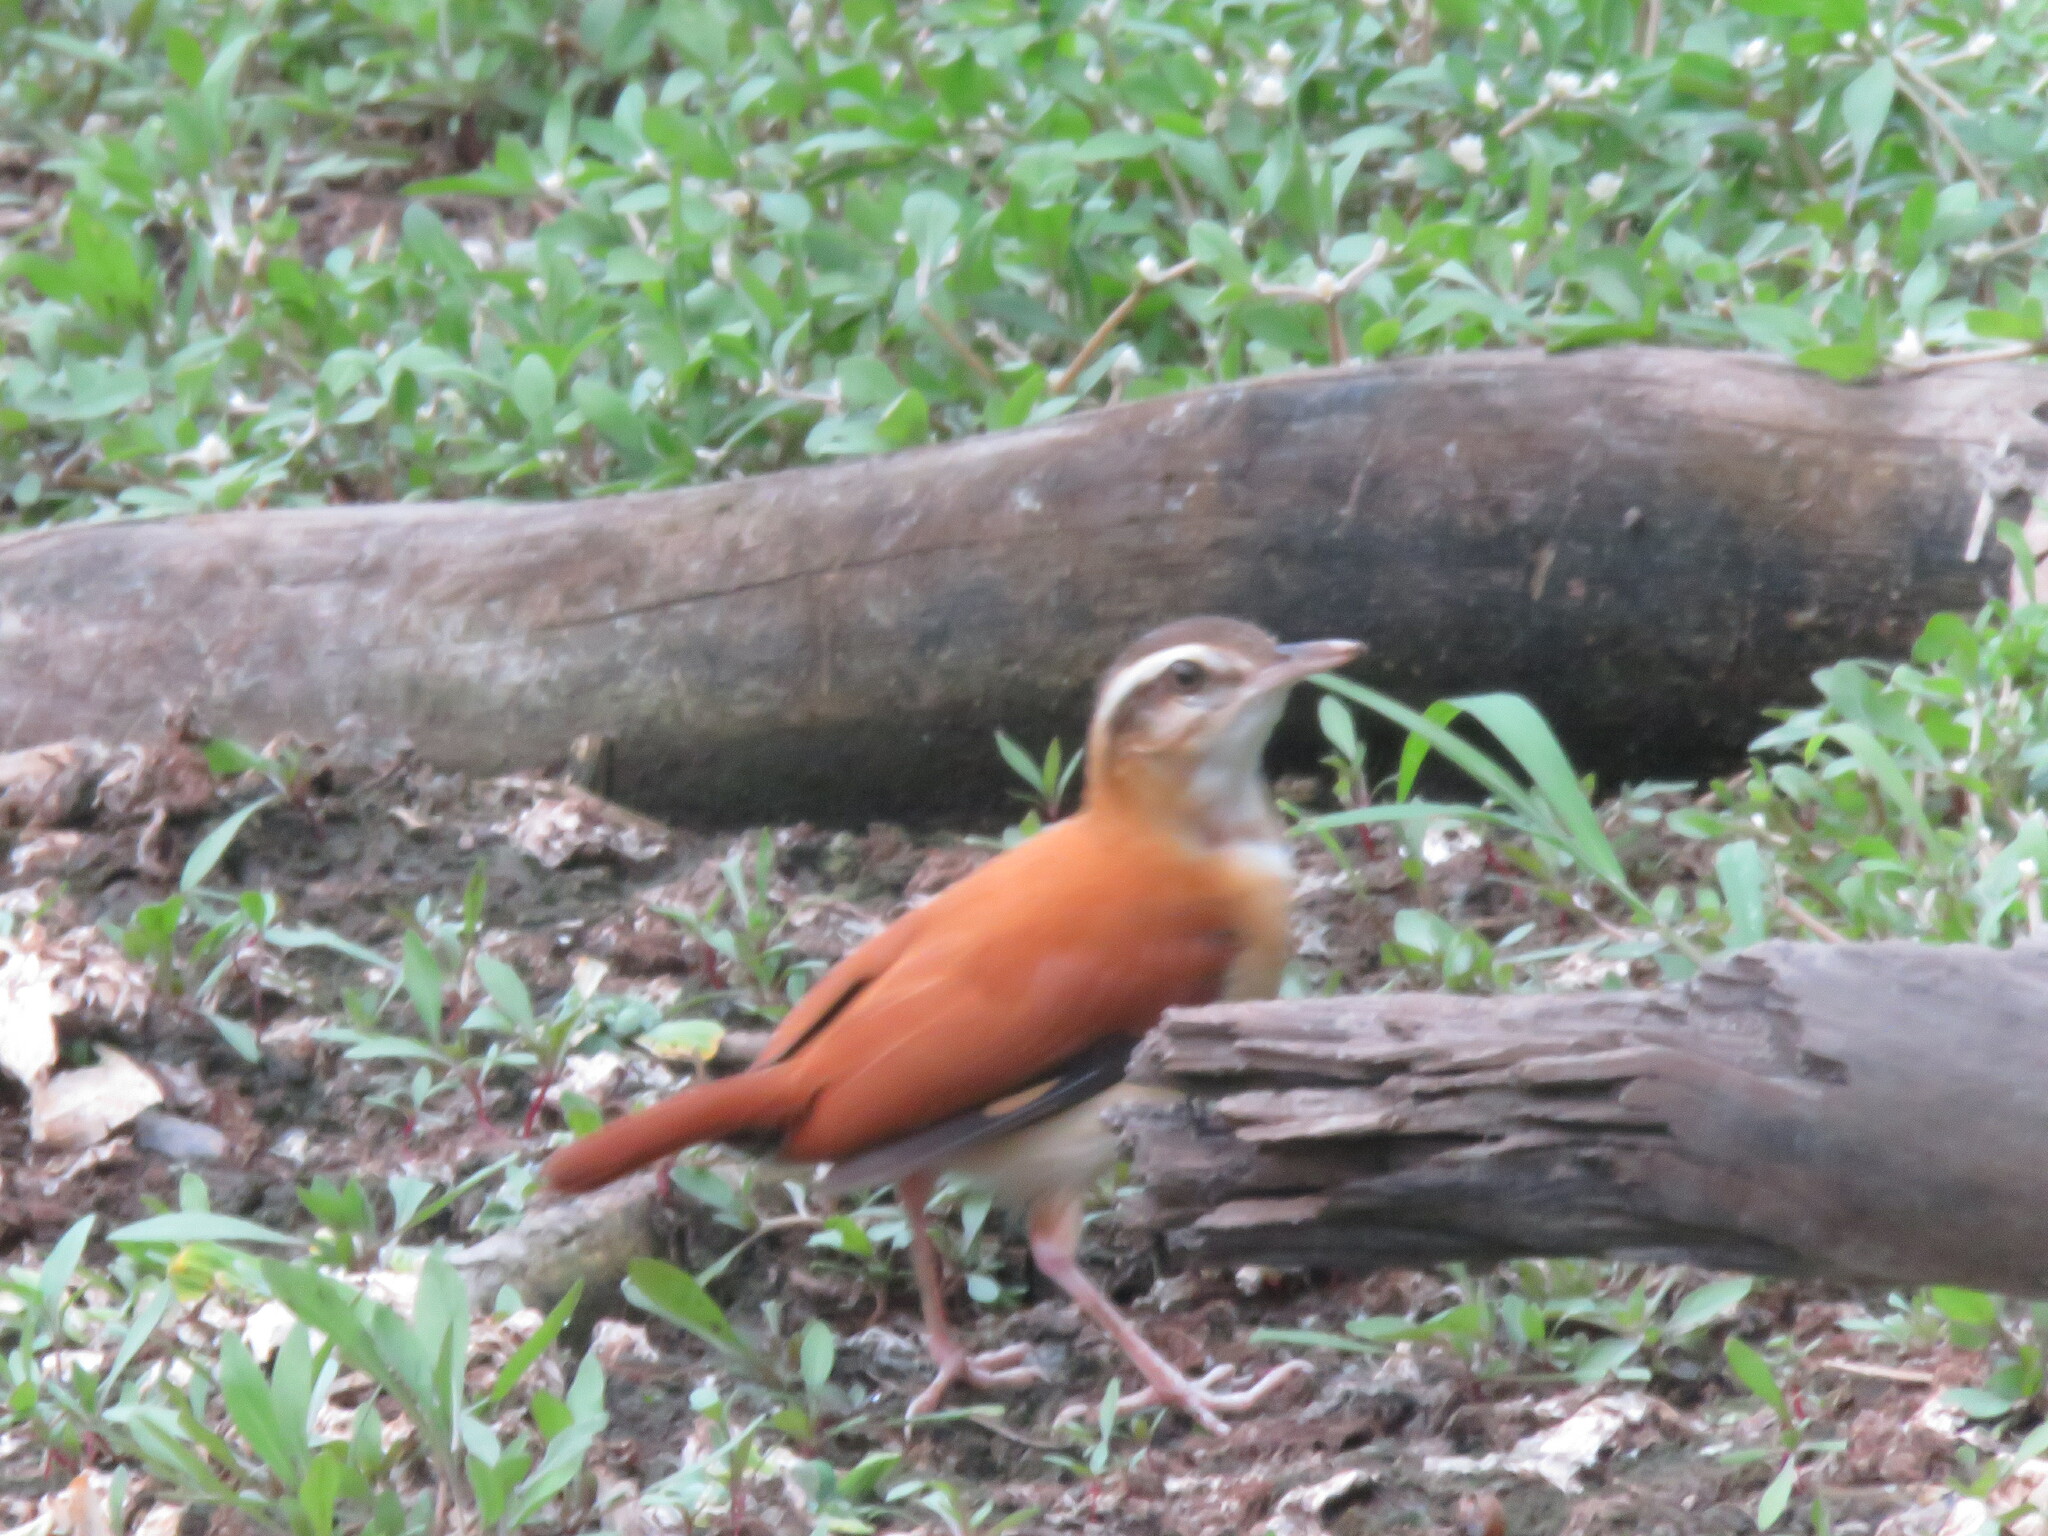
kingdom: Animalia
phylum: Chordata
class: Aves
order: Passeriformes
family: Furnariidae
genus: Furnarius
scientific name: Furnarius leucopus
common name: Pale-legged hornero
